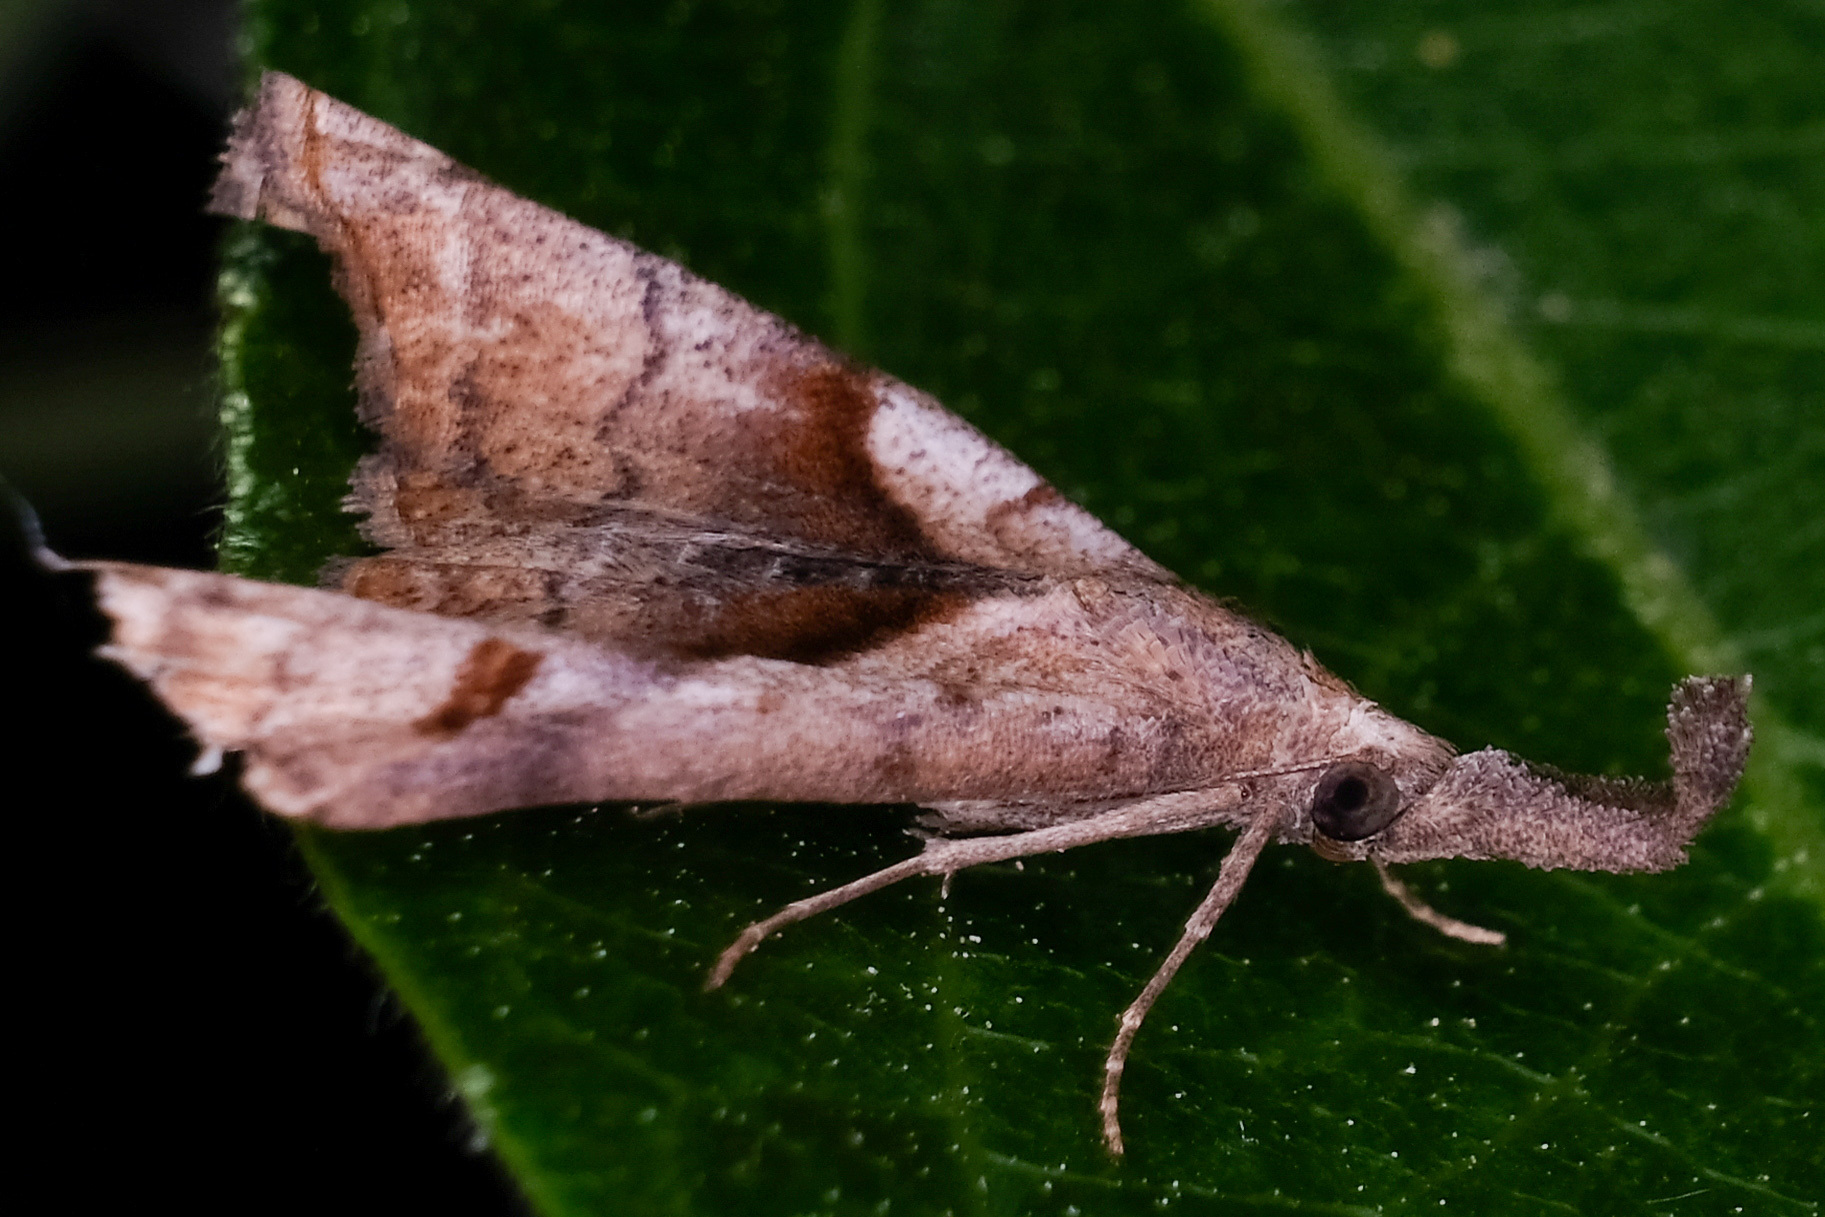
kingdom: Animalia
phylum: Arthropoda
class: Insecta
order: Lepidoptera
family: Erebidae
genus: Palthis
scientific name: Palthis angulalis
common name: Dark-spotted palthis moth
